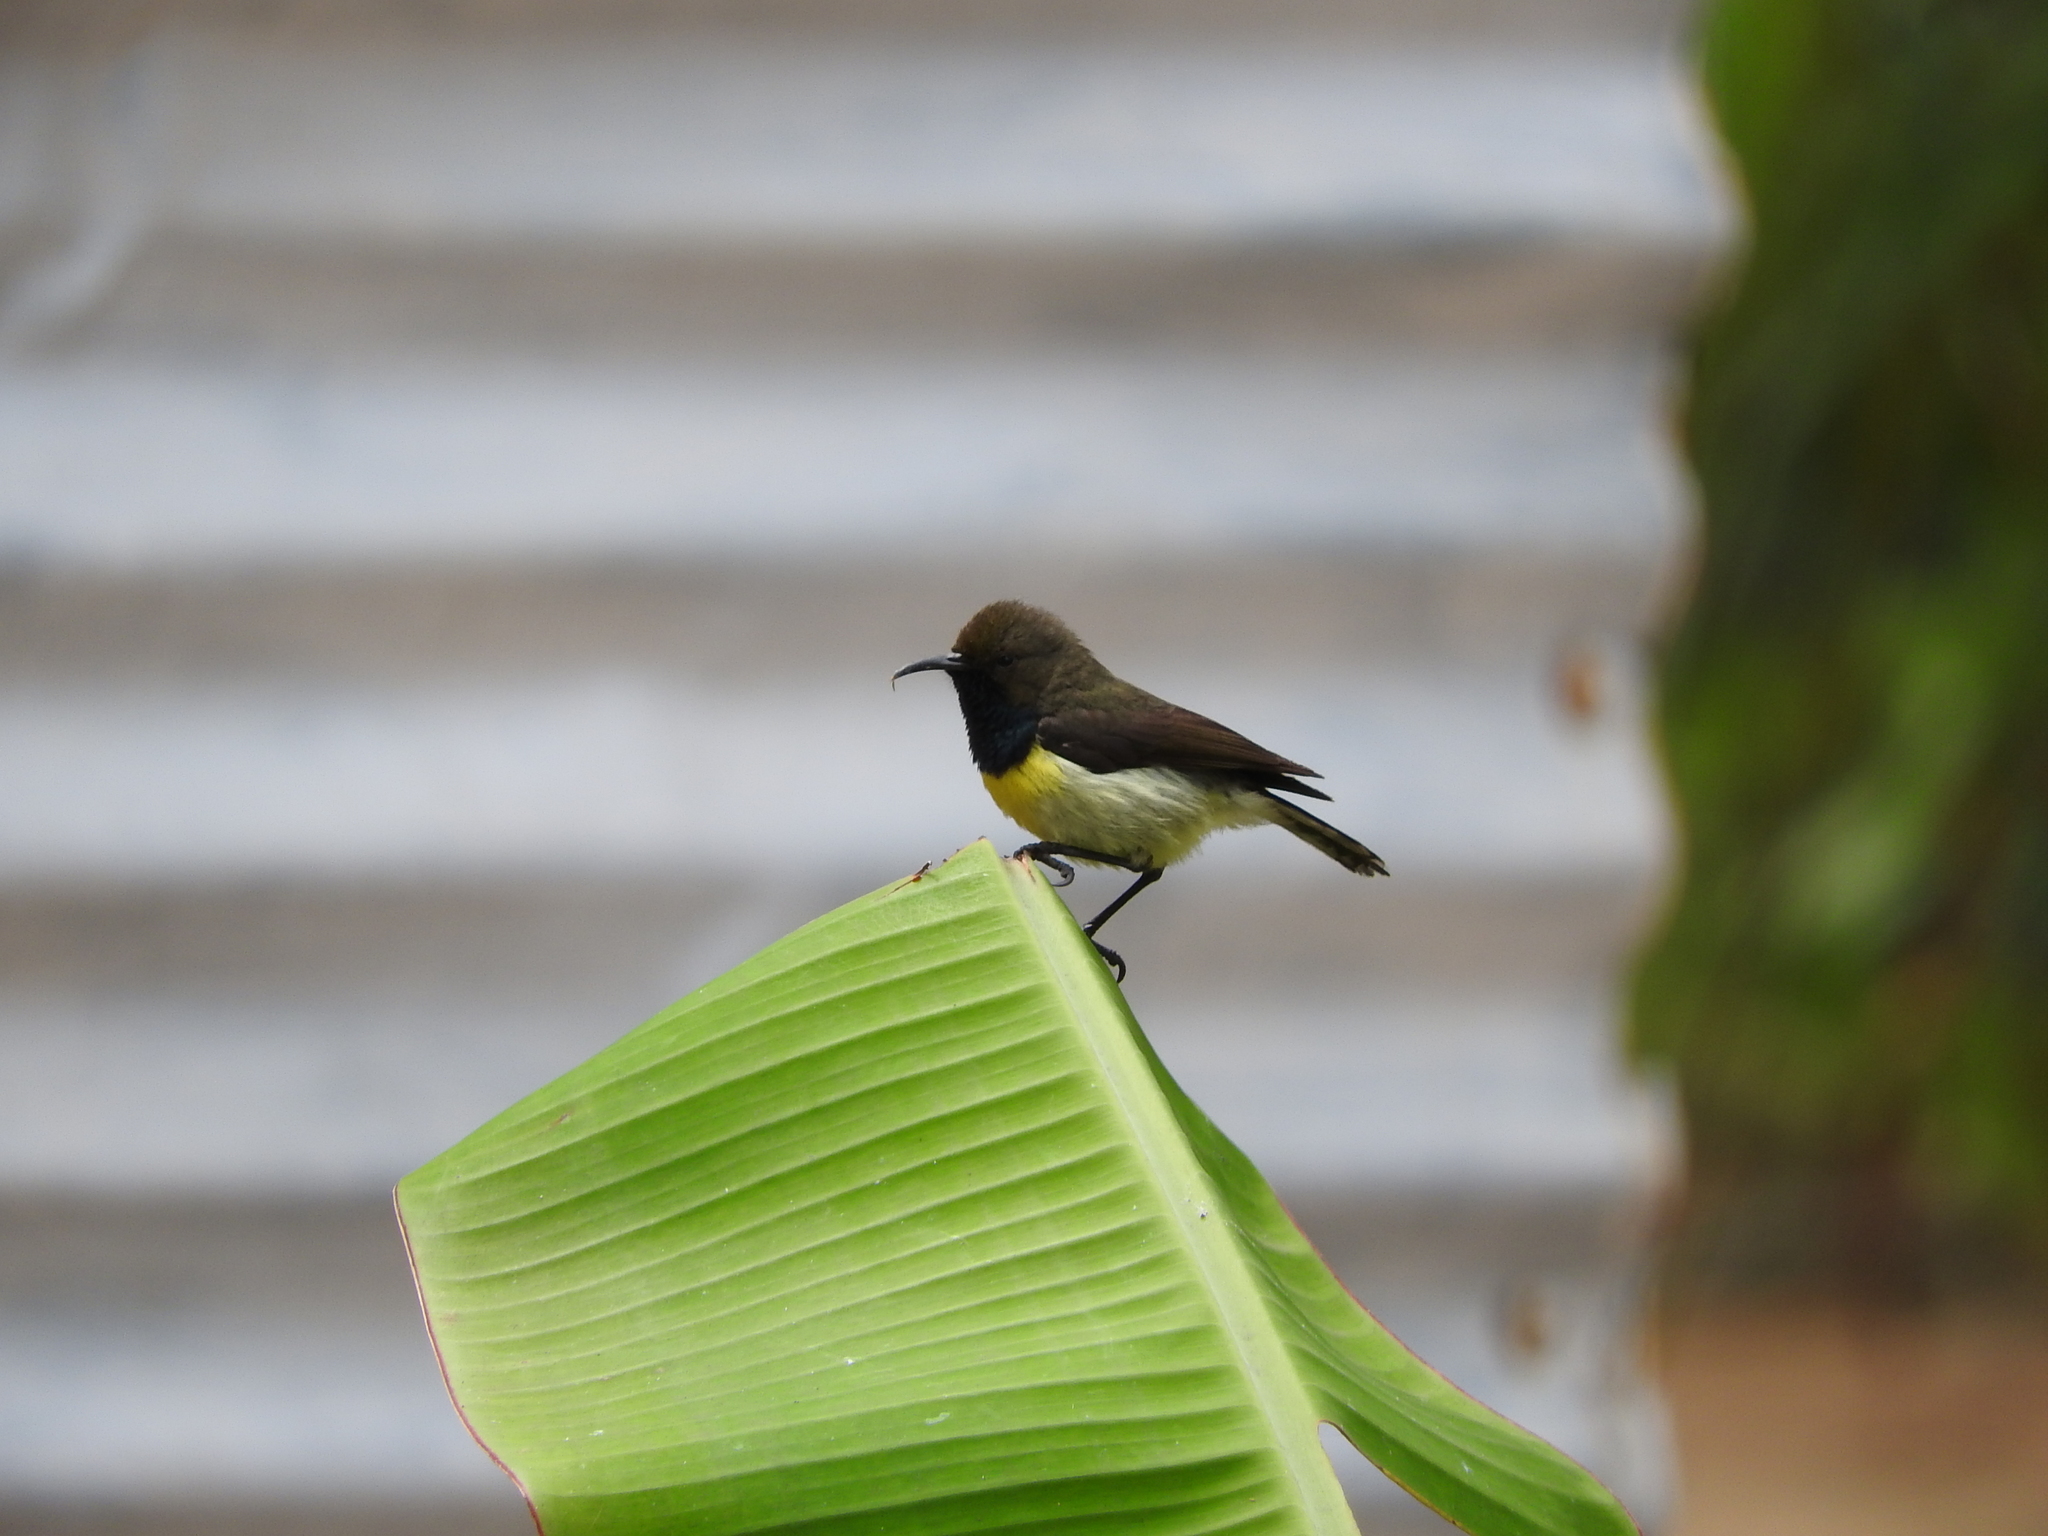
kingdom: Animalia
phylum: Chordata
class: Aves
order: Passeriformes
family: Nectariniidae
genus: Anabathmis
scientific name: Anabathmis newtonii
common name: Newton's sunbird
